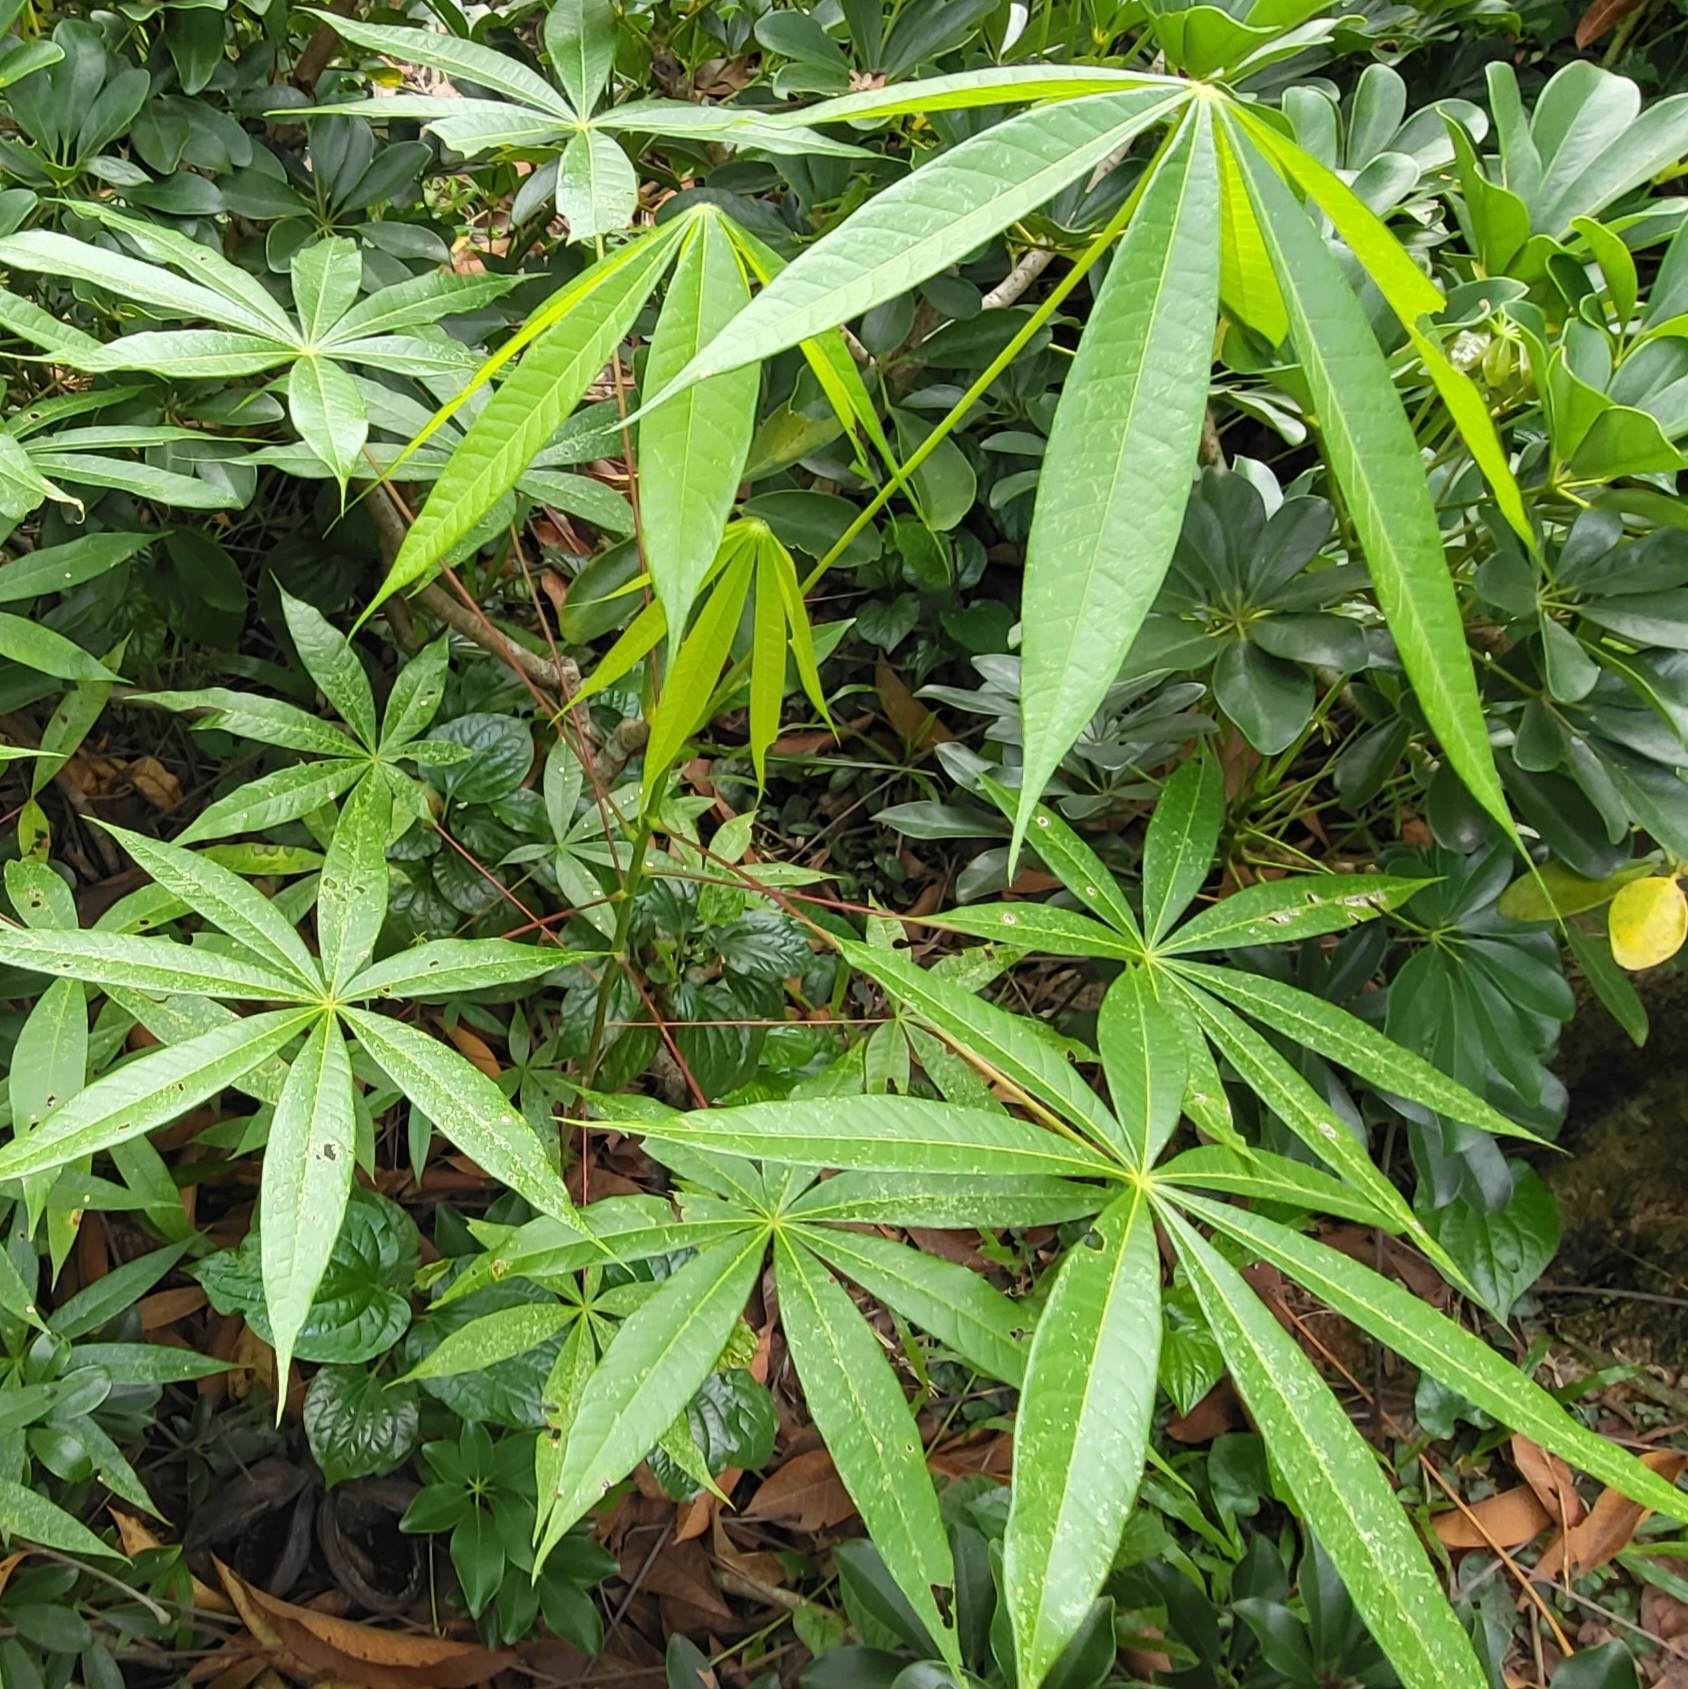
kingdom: Plantae
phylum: Tracheophyta
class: Magnoliopsida
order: Malvales
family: Malvaceae
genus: Sterculia
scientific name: Sterculia foetida
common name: Hazel sterculia
